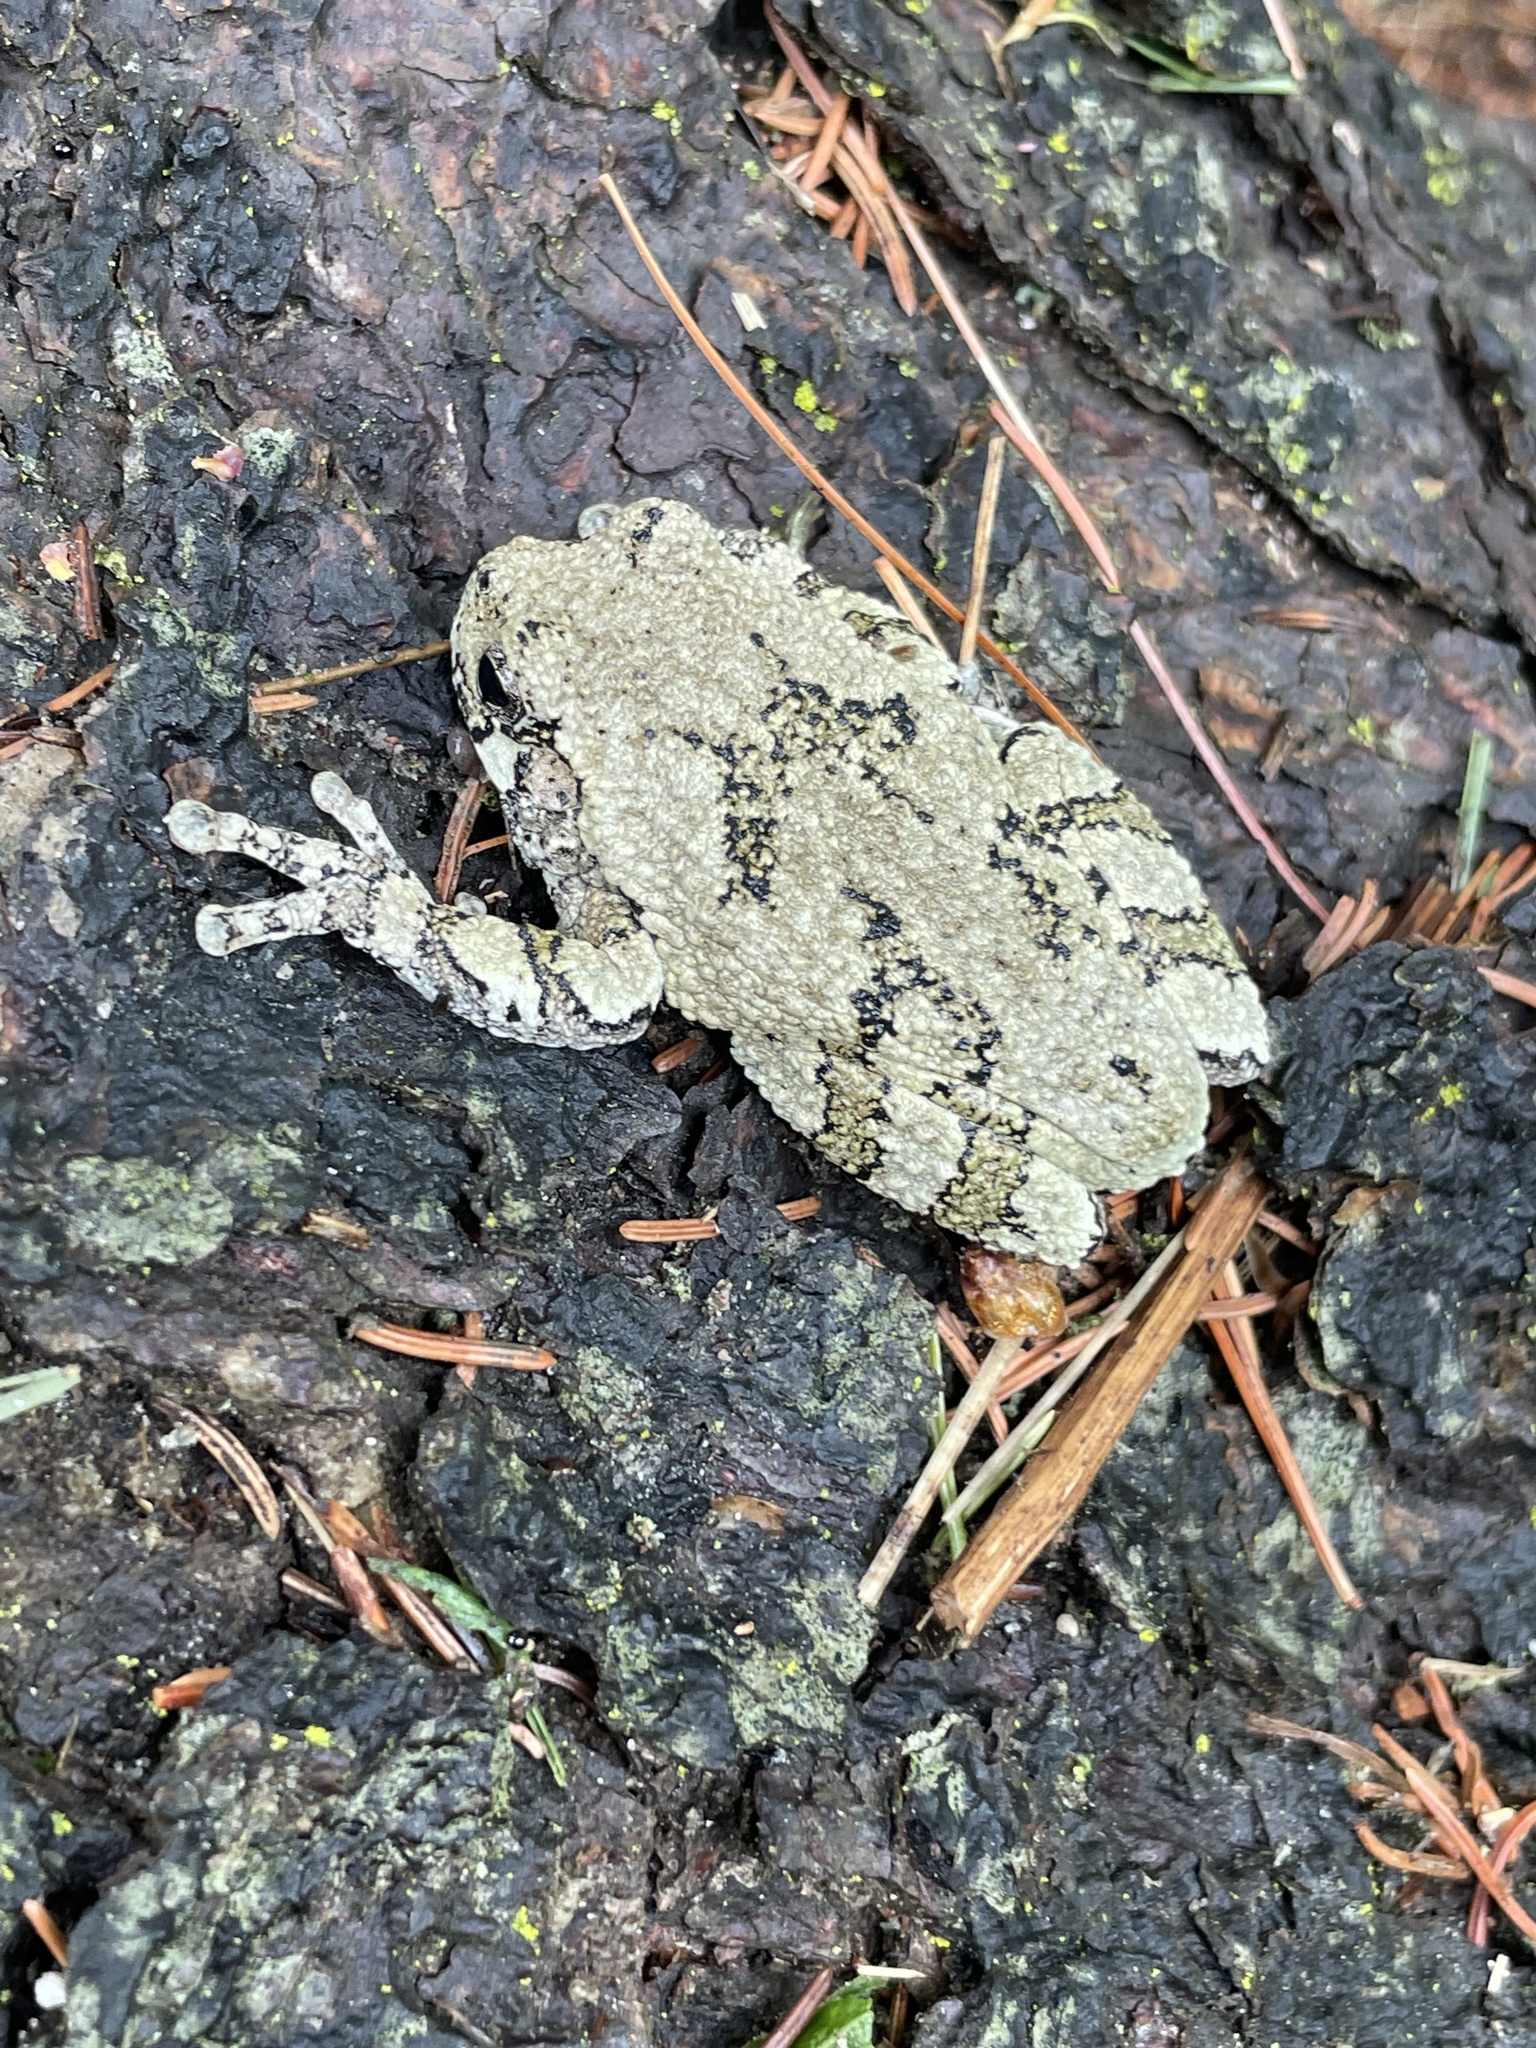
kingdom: Animalia
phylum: Chordata
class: Amphibia
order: Anura
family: Hylidae
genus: Dryophytes
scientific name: Dryophytes versicolor
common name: Gray treefrog
